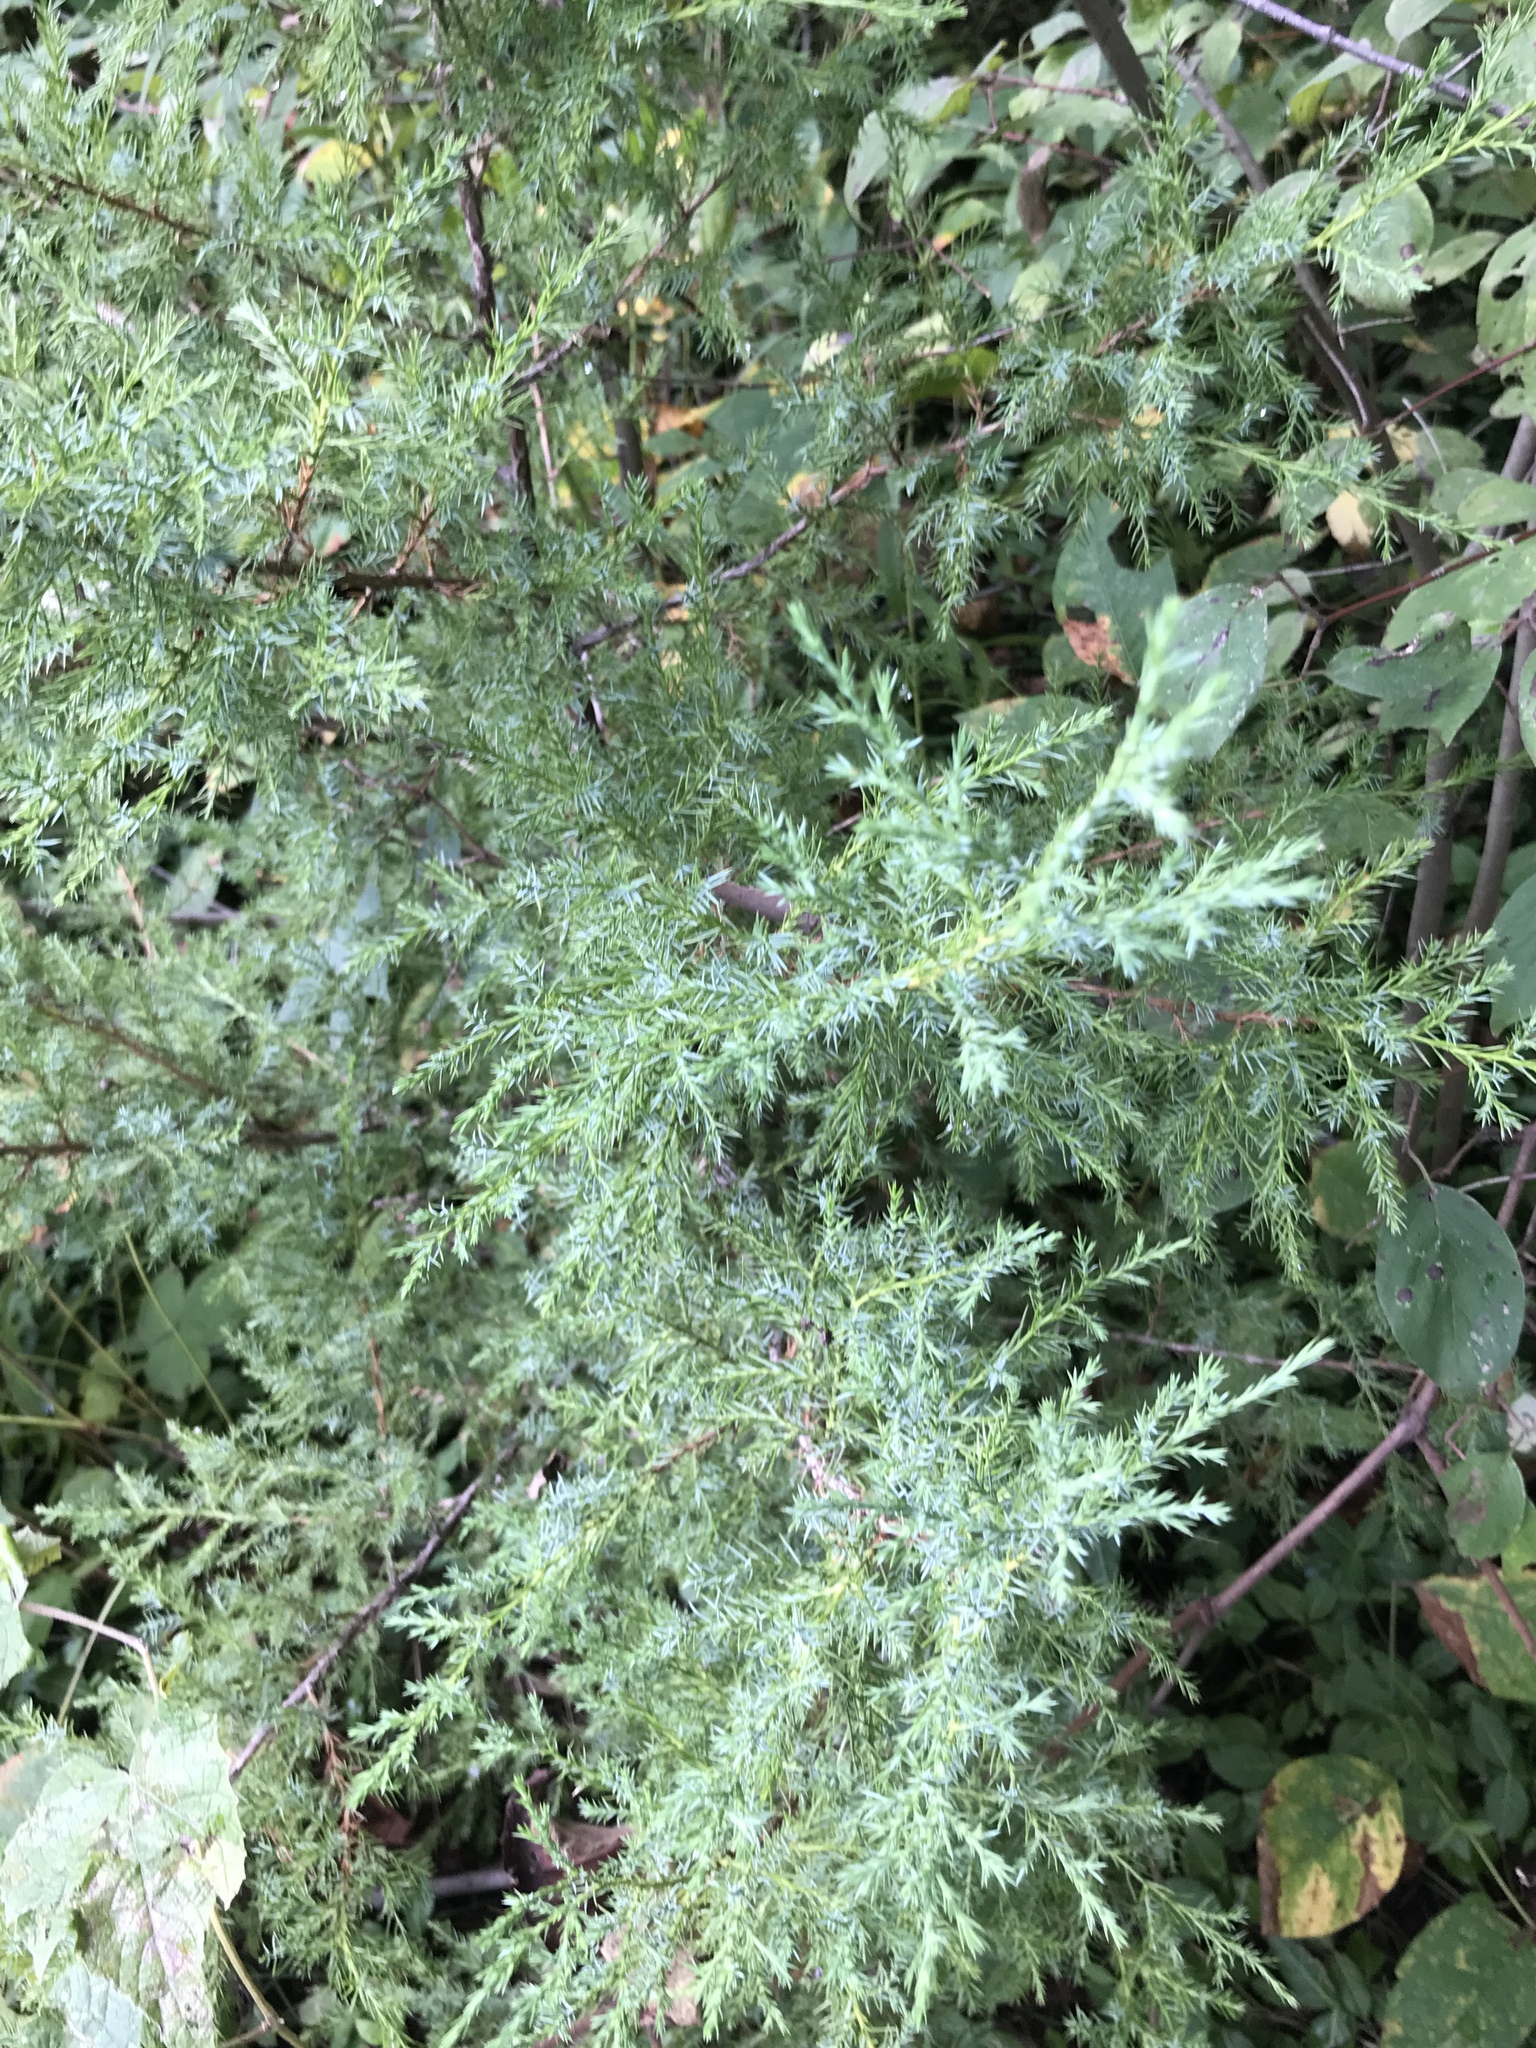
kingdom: Plantae
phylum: Tracheophyta
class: Pinopsida
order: Pinales
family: Cupressaceae
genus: Juniperus
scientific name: Juniperus virginiana
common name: Red juniper
